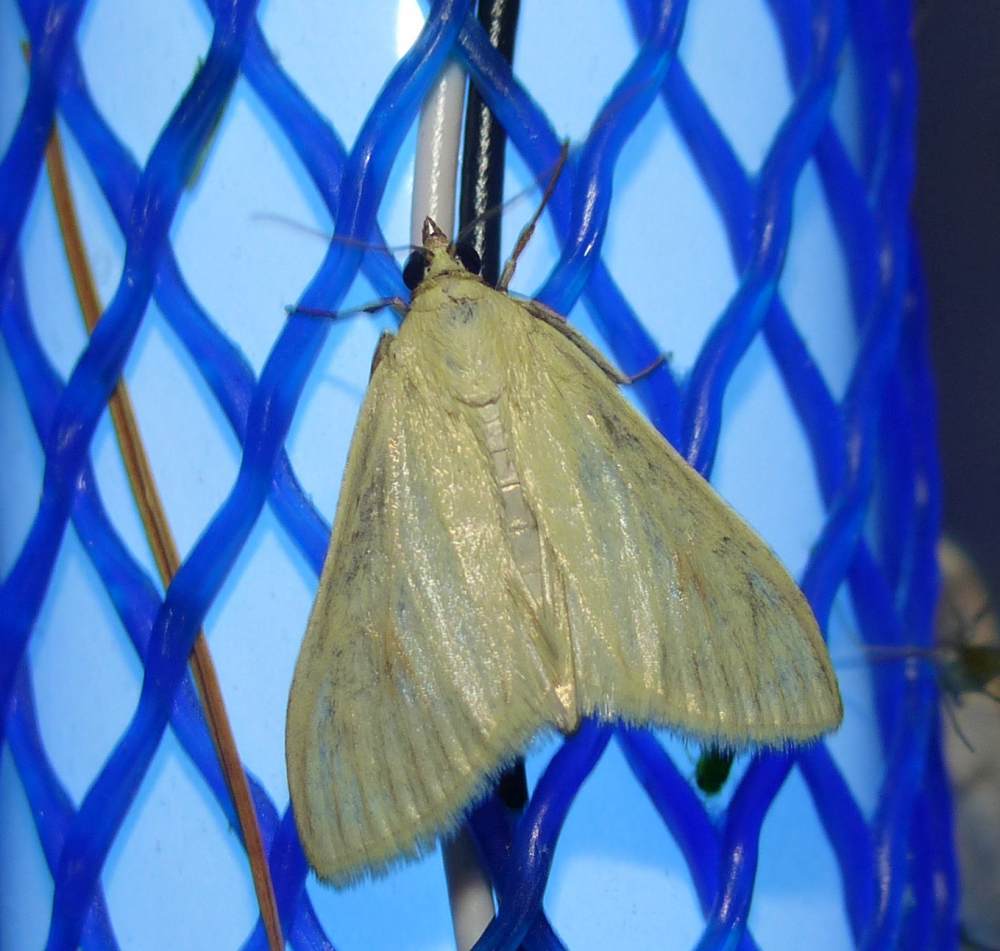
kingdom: Animalia
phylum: Arthropoda
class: Insecta
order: Lepidoptera
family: Crambidae
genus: Sitochroa
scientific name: Sitochroa palealis
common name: Greenish-yellow sitochroa moth
